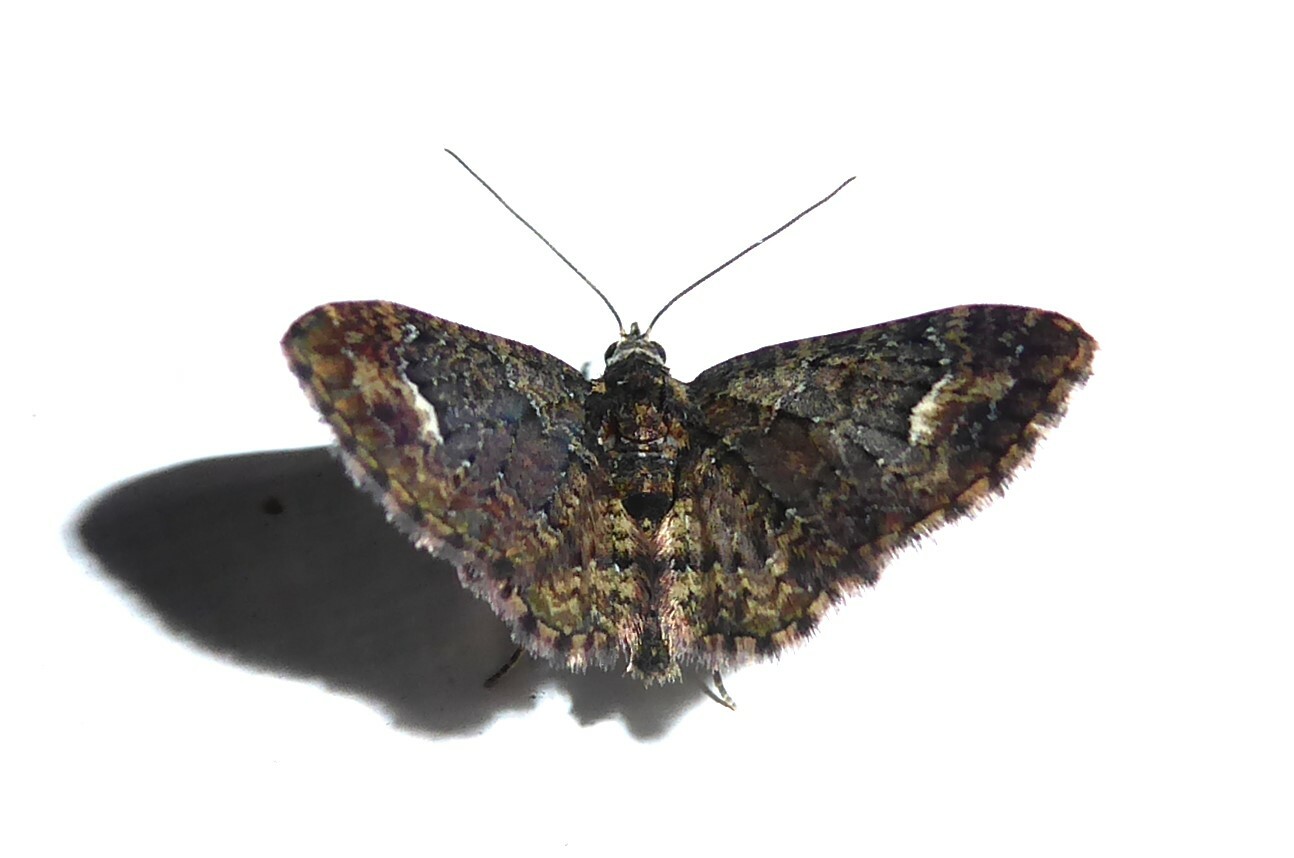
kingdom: Animalia
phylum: Arthropoda
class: Insecta
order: Lepidoptera
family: Geometridae
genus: Pasiphilodes
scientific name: Pasiphilodes testulata
